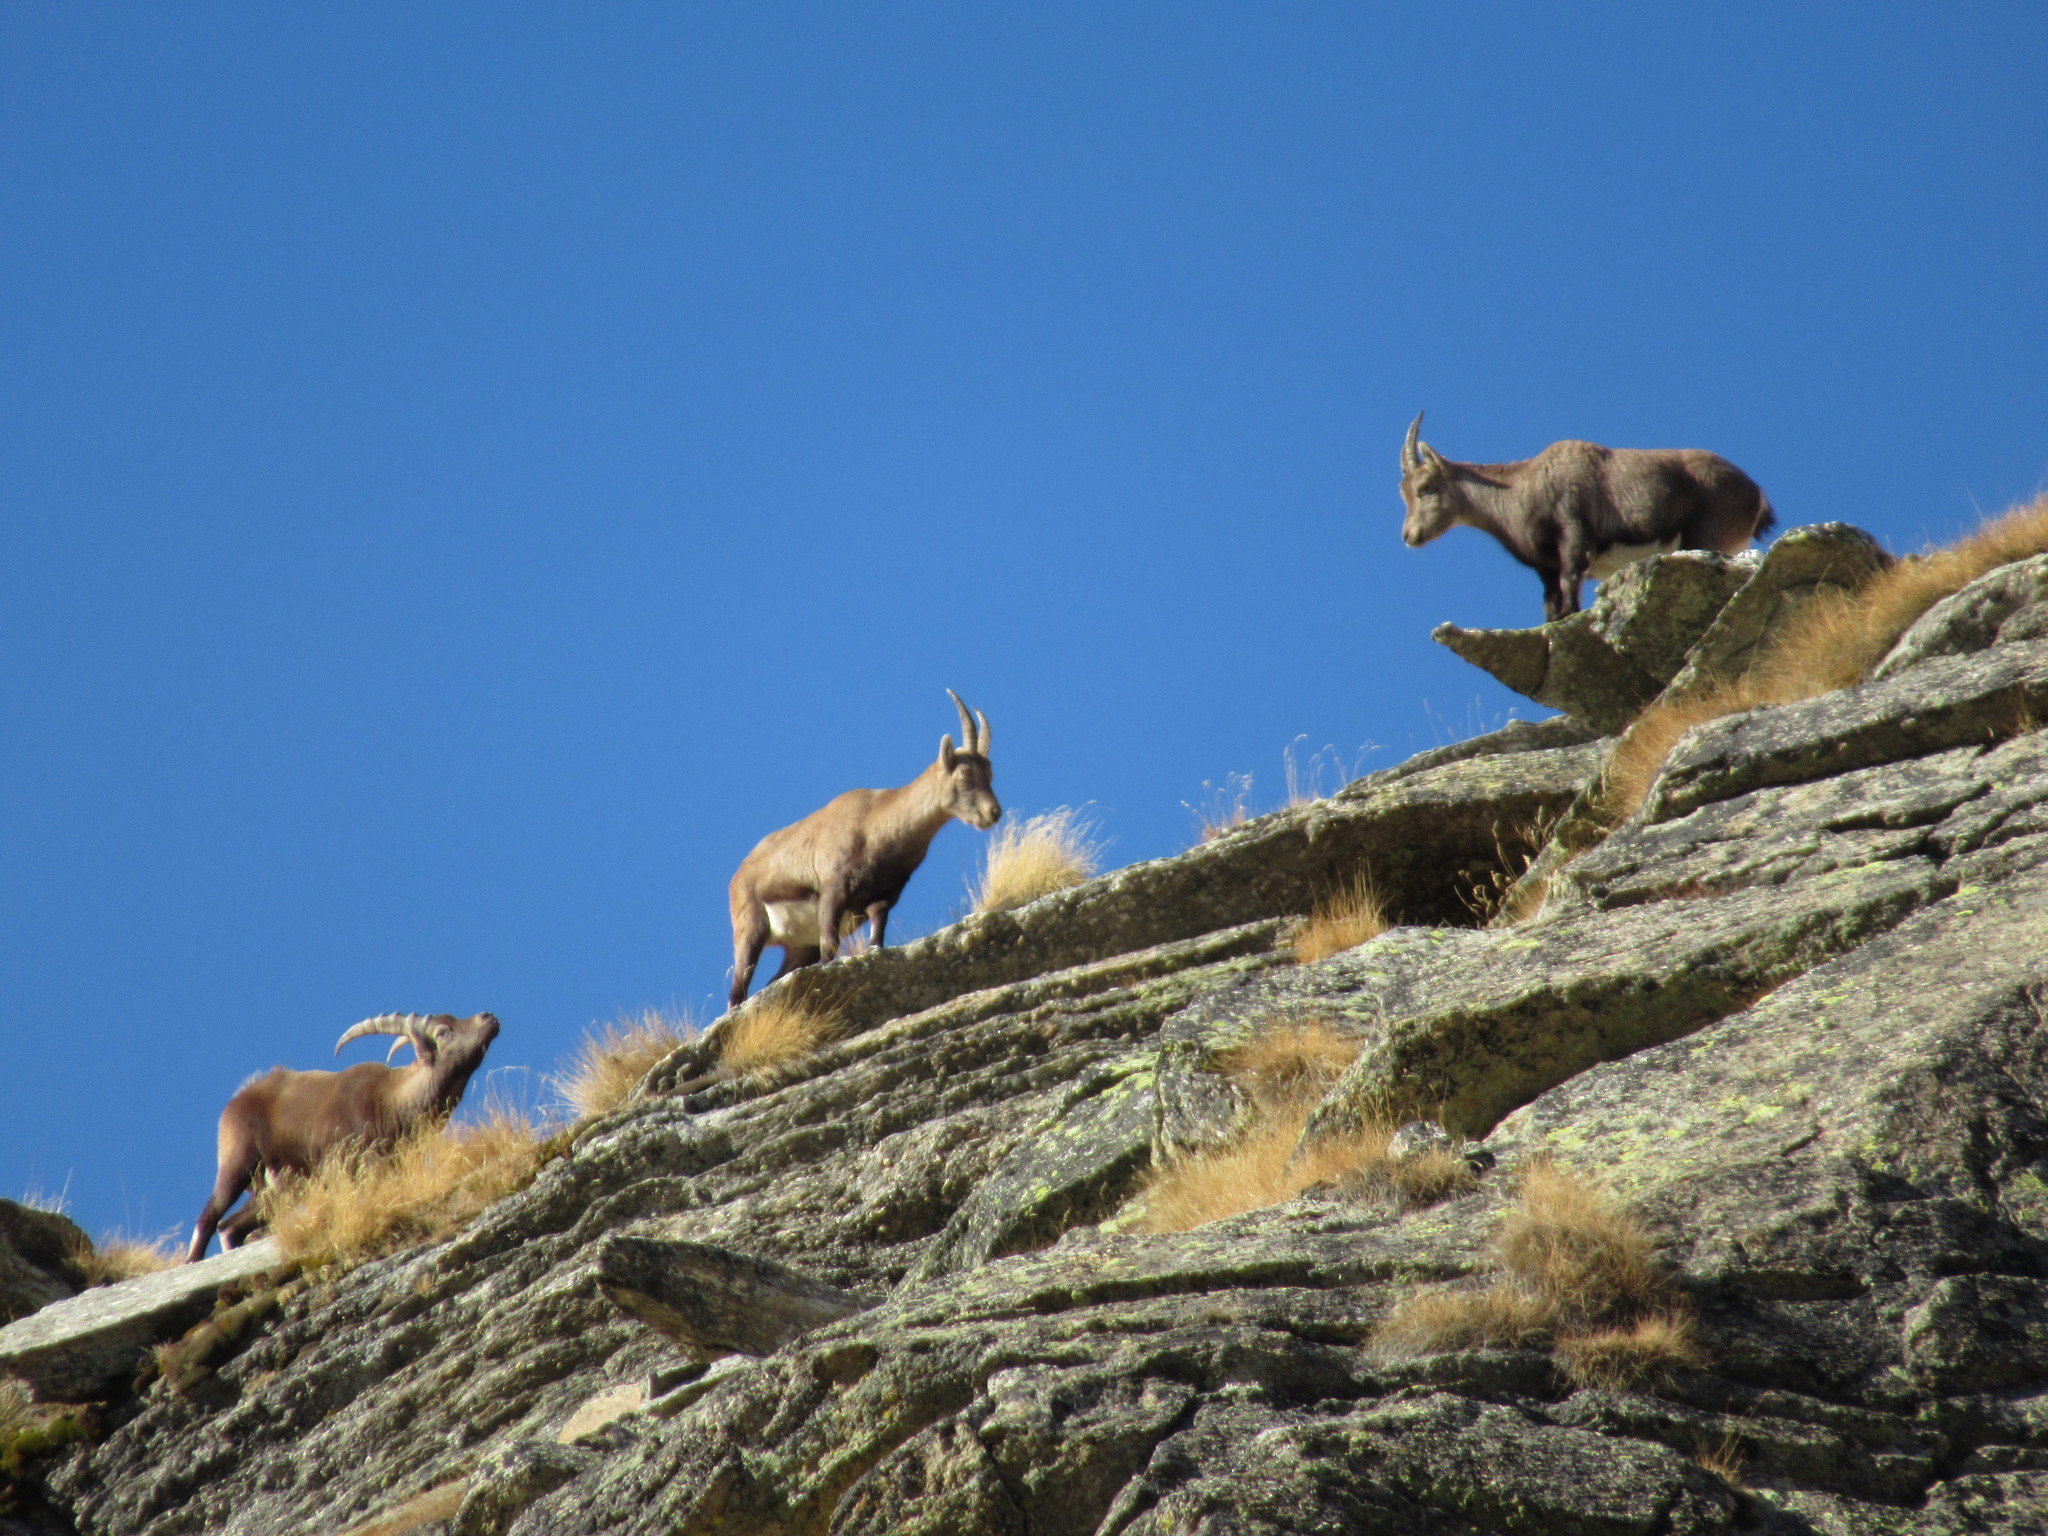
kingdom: Animalia
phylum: Chordata
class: Mammalia
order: Artiodactyla
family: Bovidae
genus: Capra
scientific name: Capra ibex
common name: Alpine ibex
